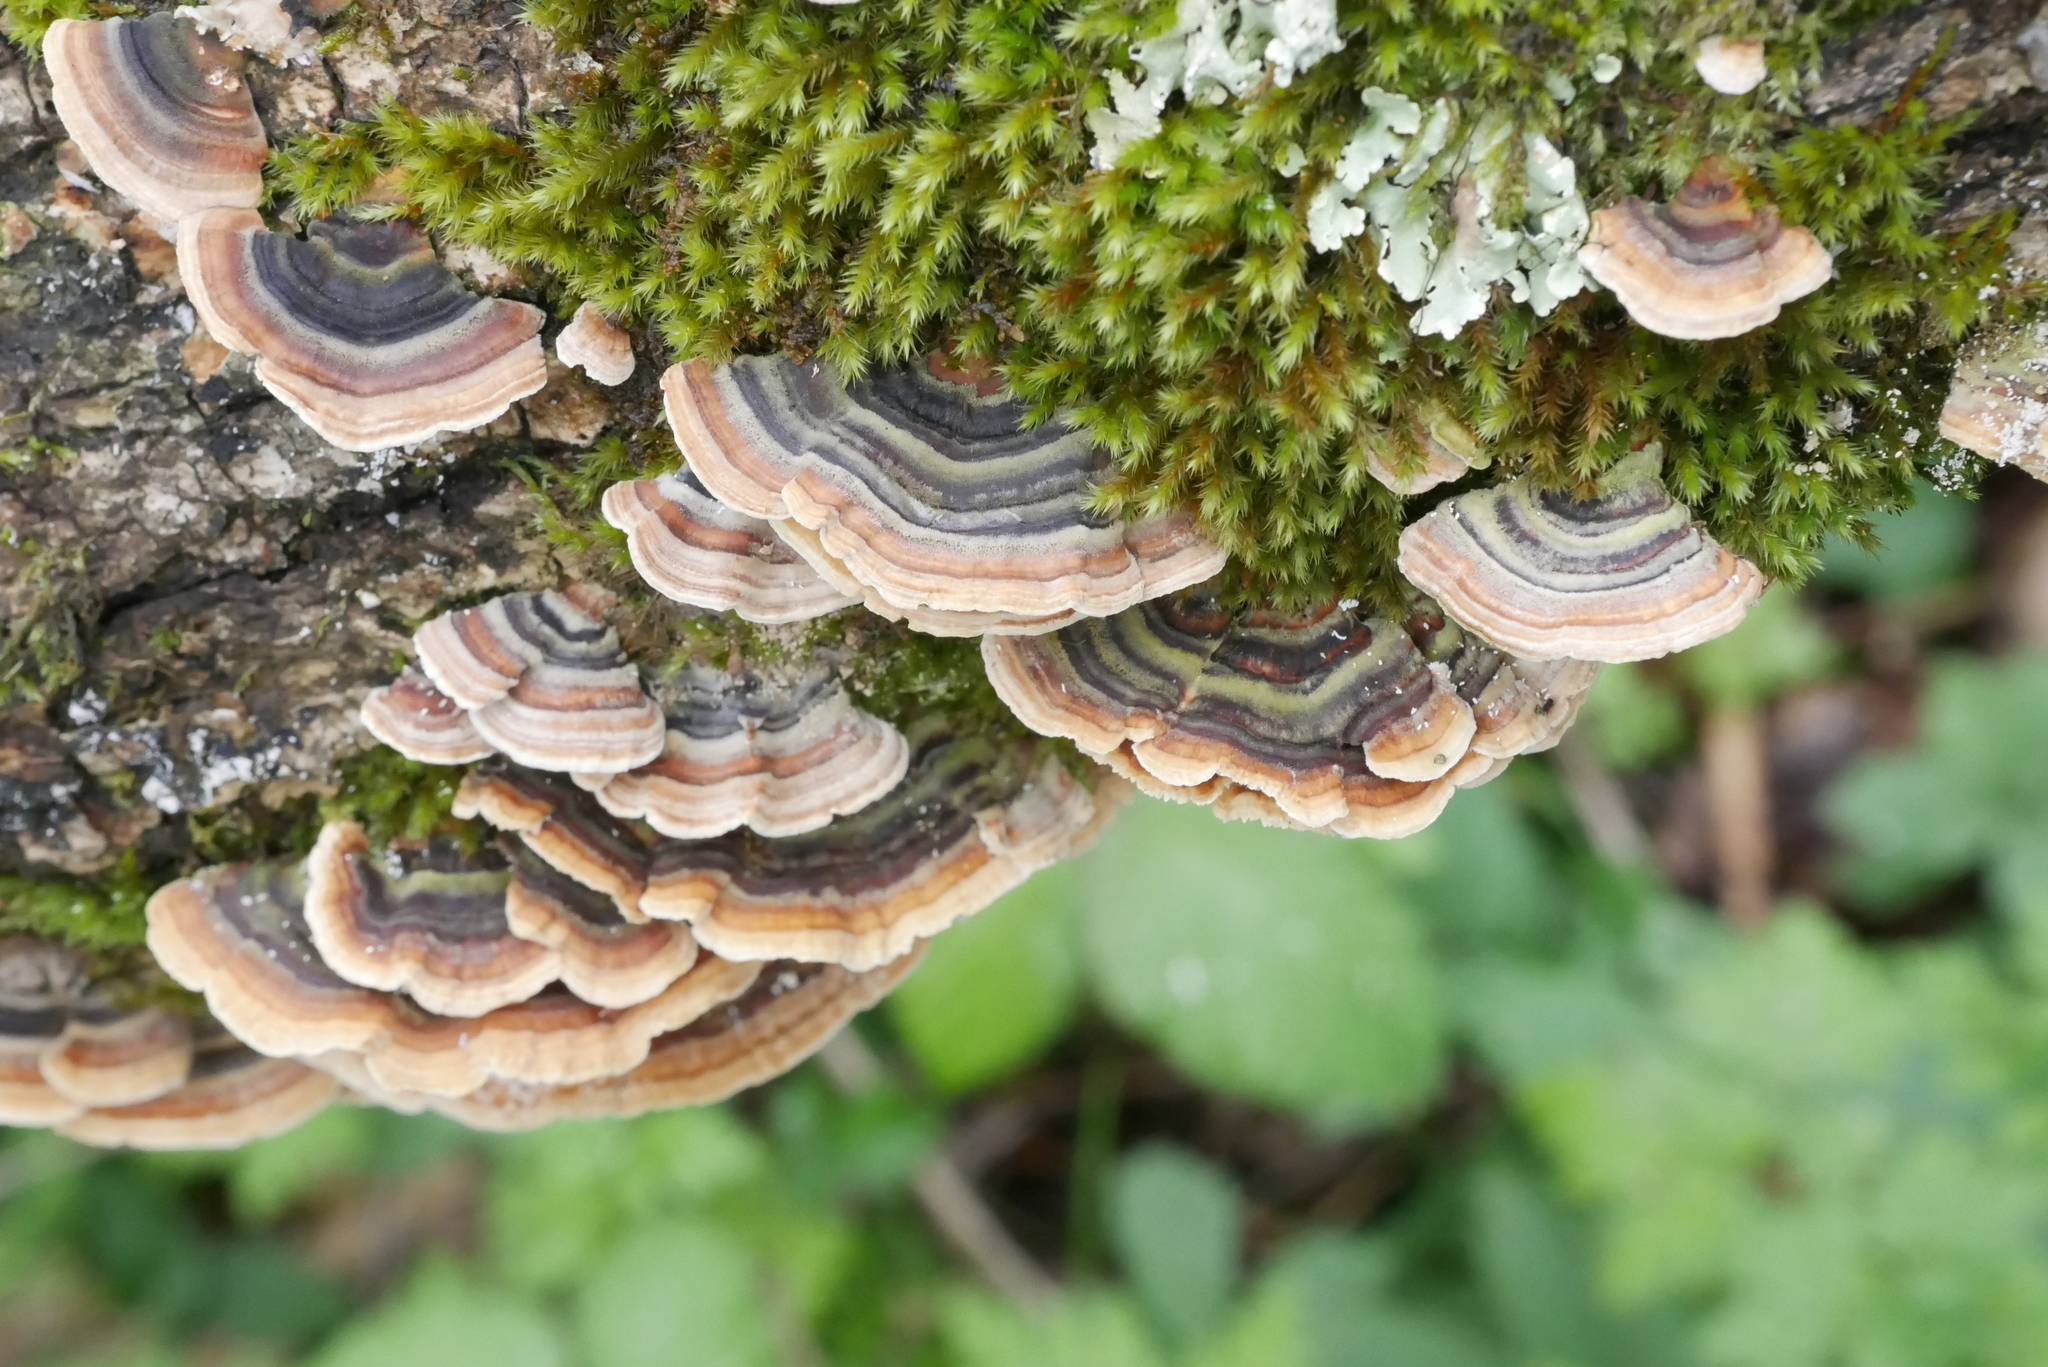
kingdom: Fungi
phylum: Basidiomycota
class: Agaricomycetes
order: Polyporales
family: Polyporaceae
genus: Trametes
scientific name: Trametes versicolor
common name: Turkeytail
